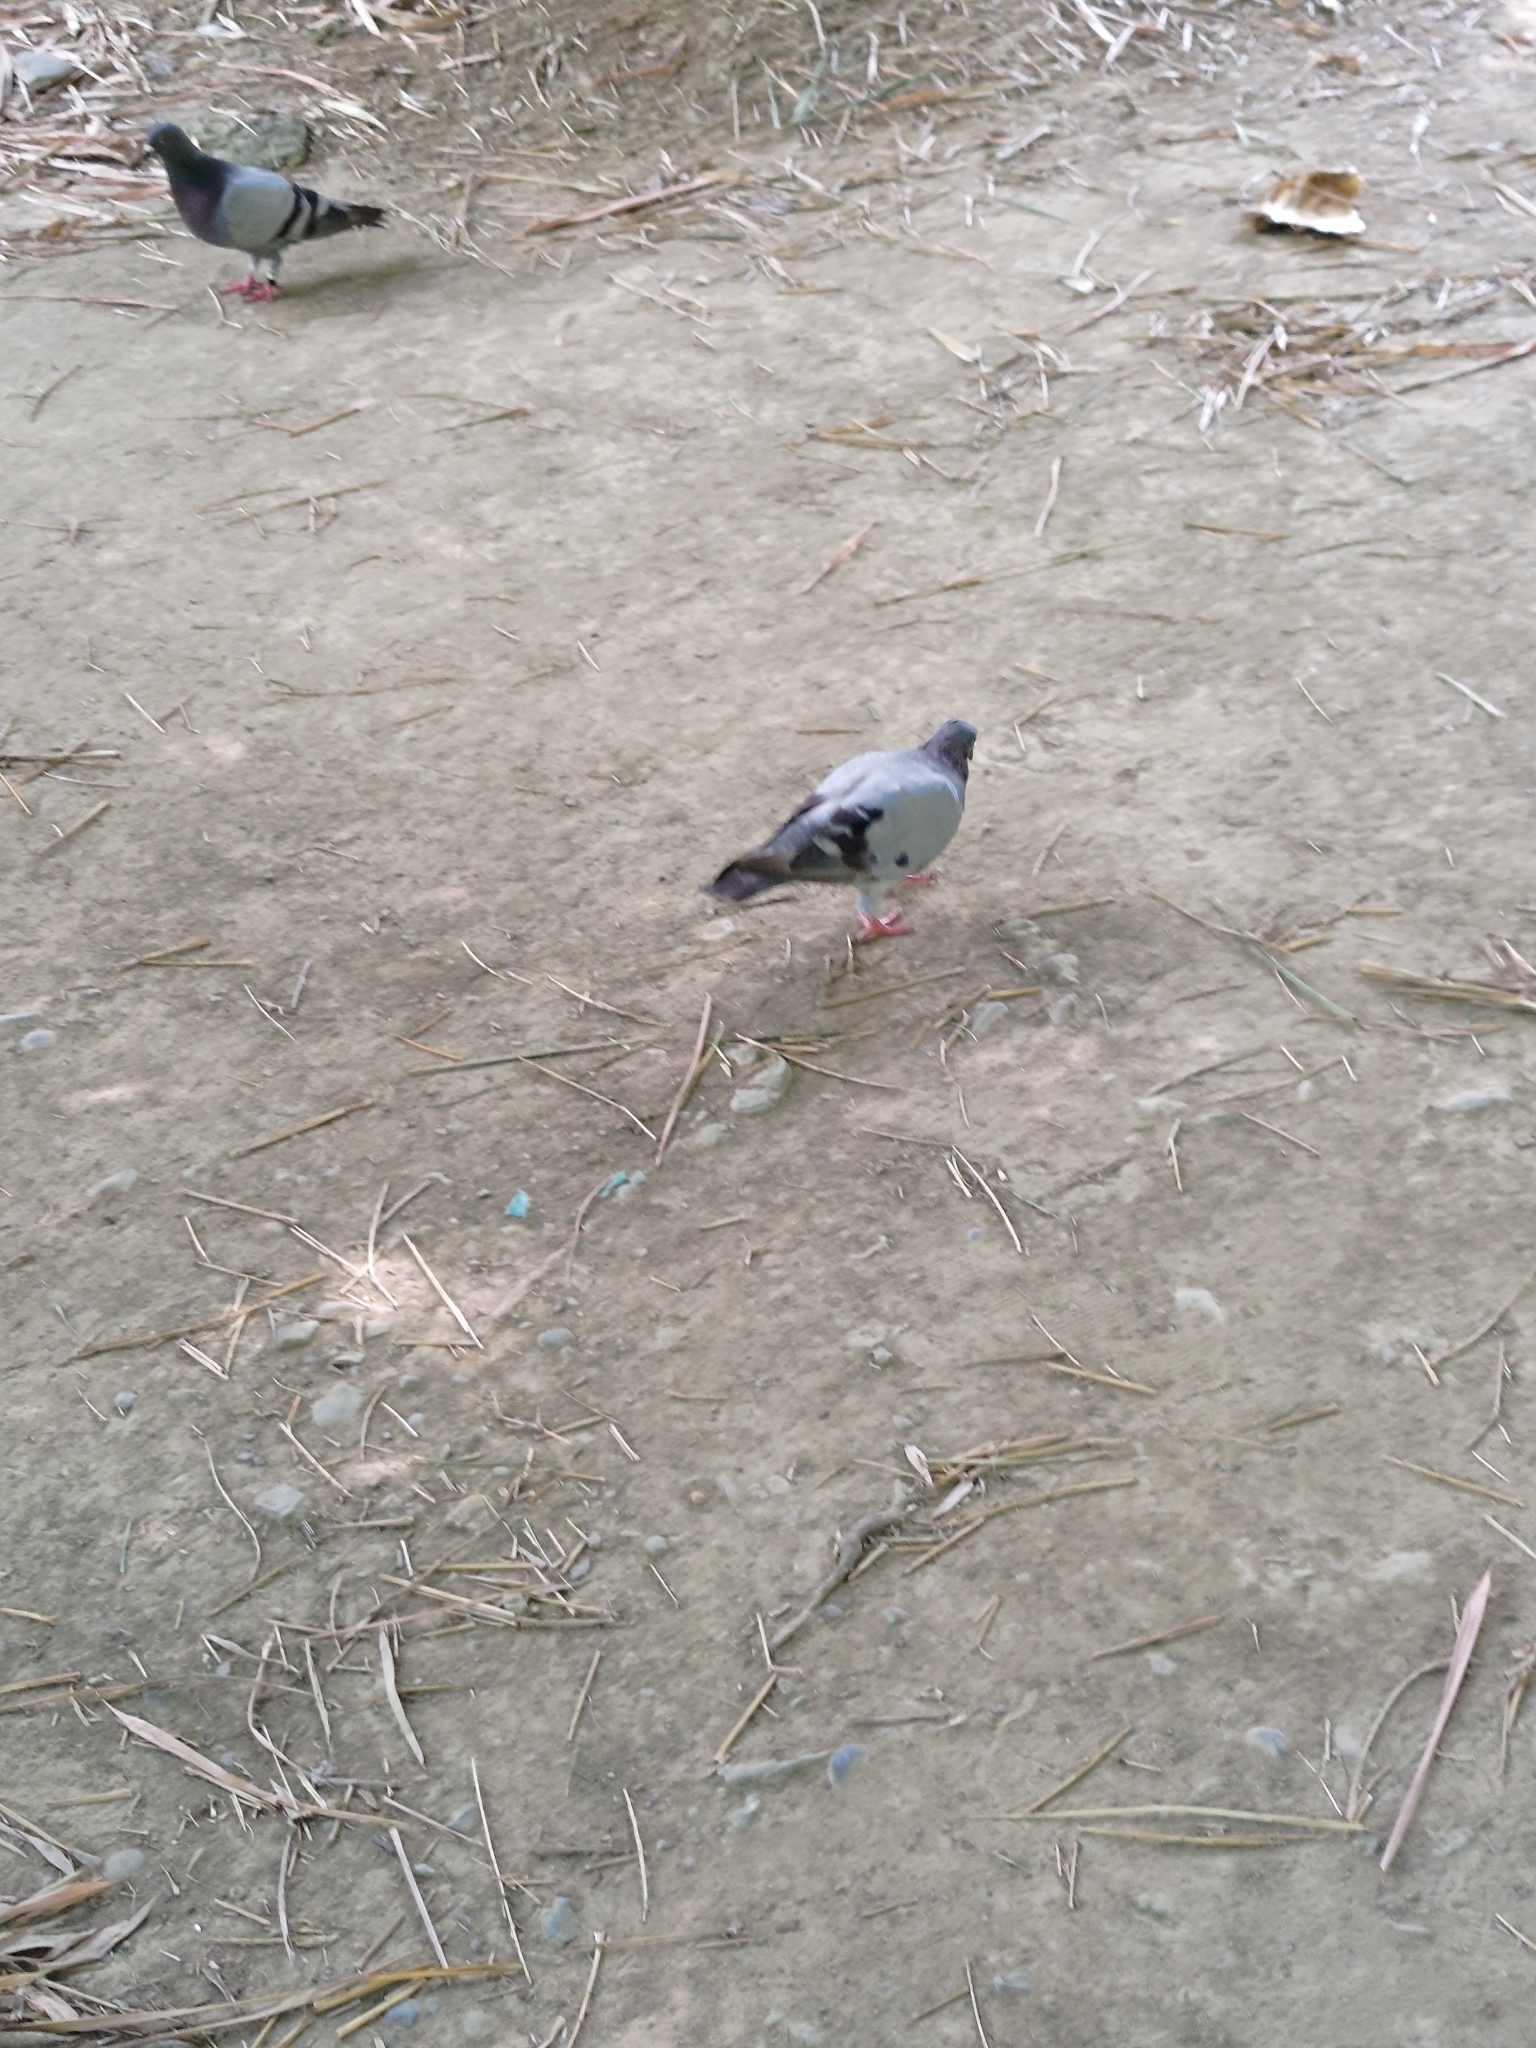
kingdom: Animalia
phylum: Chordata
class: Aves
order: Columbiformes
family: Columbidae
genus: Columba
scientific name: Columba livia
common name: Rock pigeon
